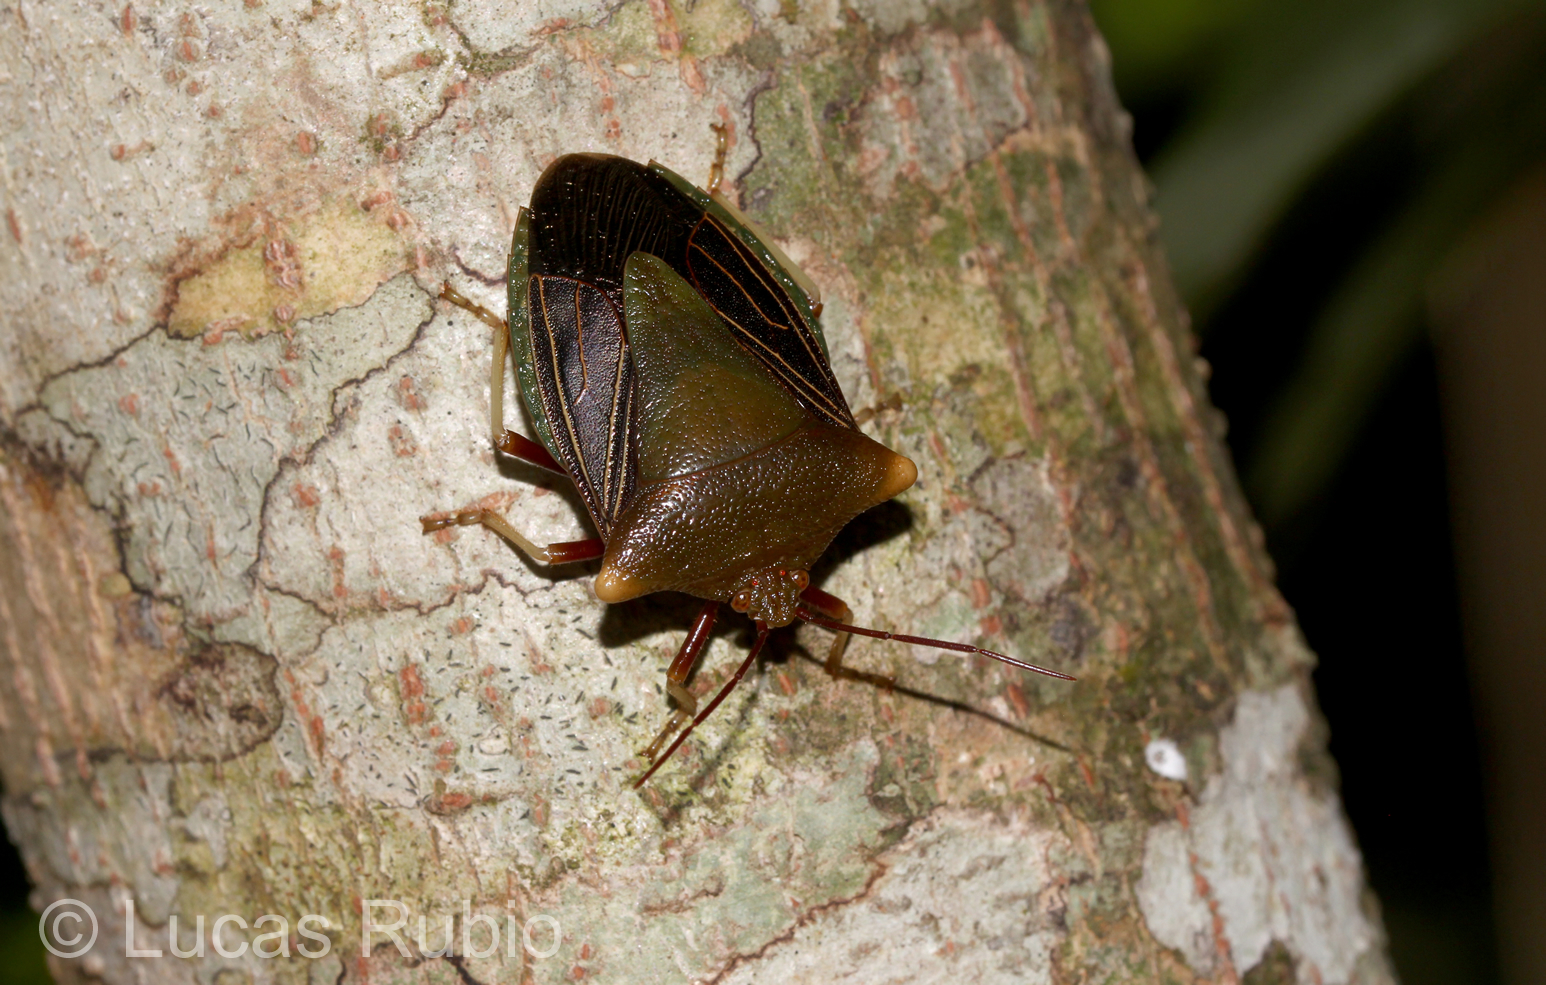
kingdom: Animalia
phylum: Arthropoda
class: Insecta
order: Hemiptera
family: Pentatomidae
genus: Peromatus
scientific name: Peromatus sulcifer
